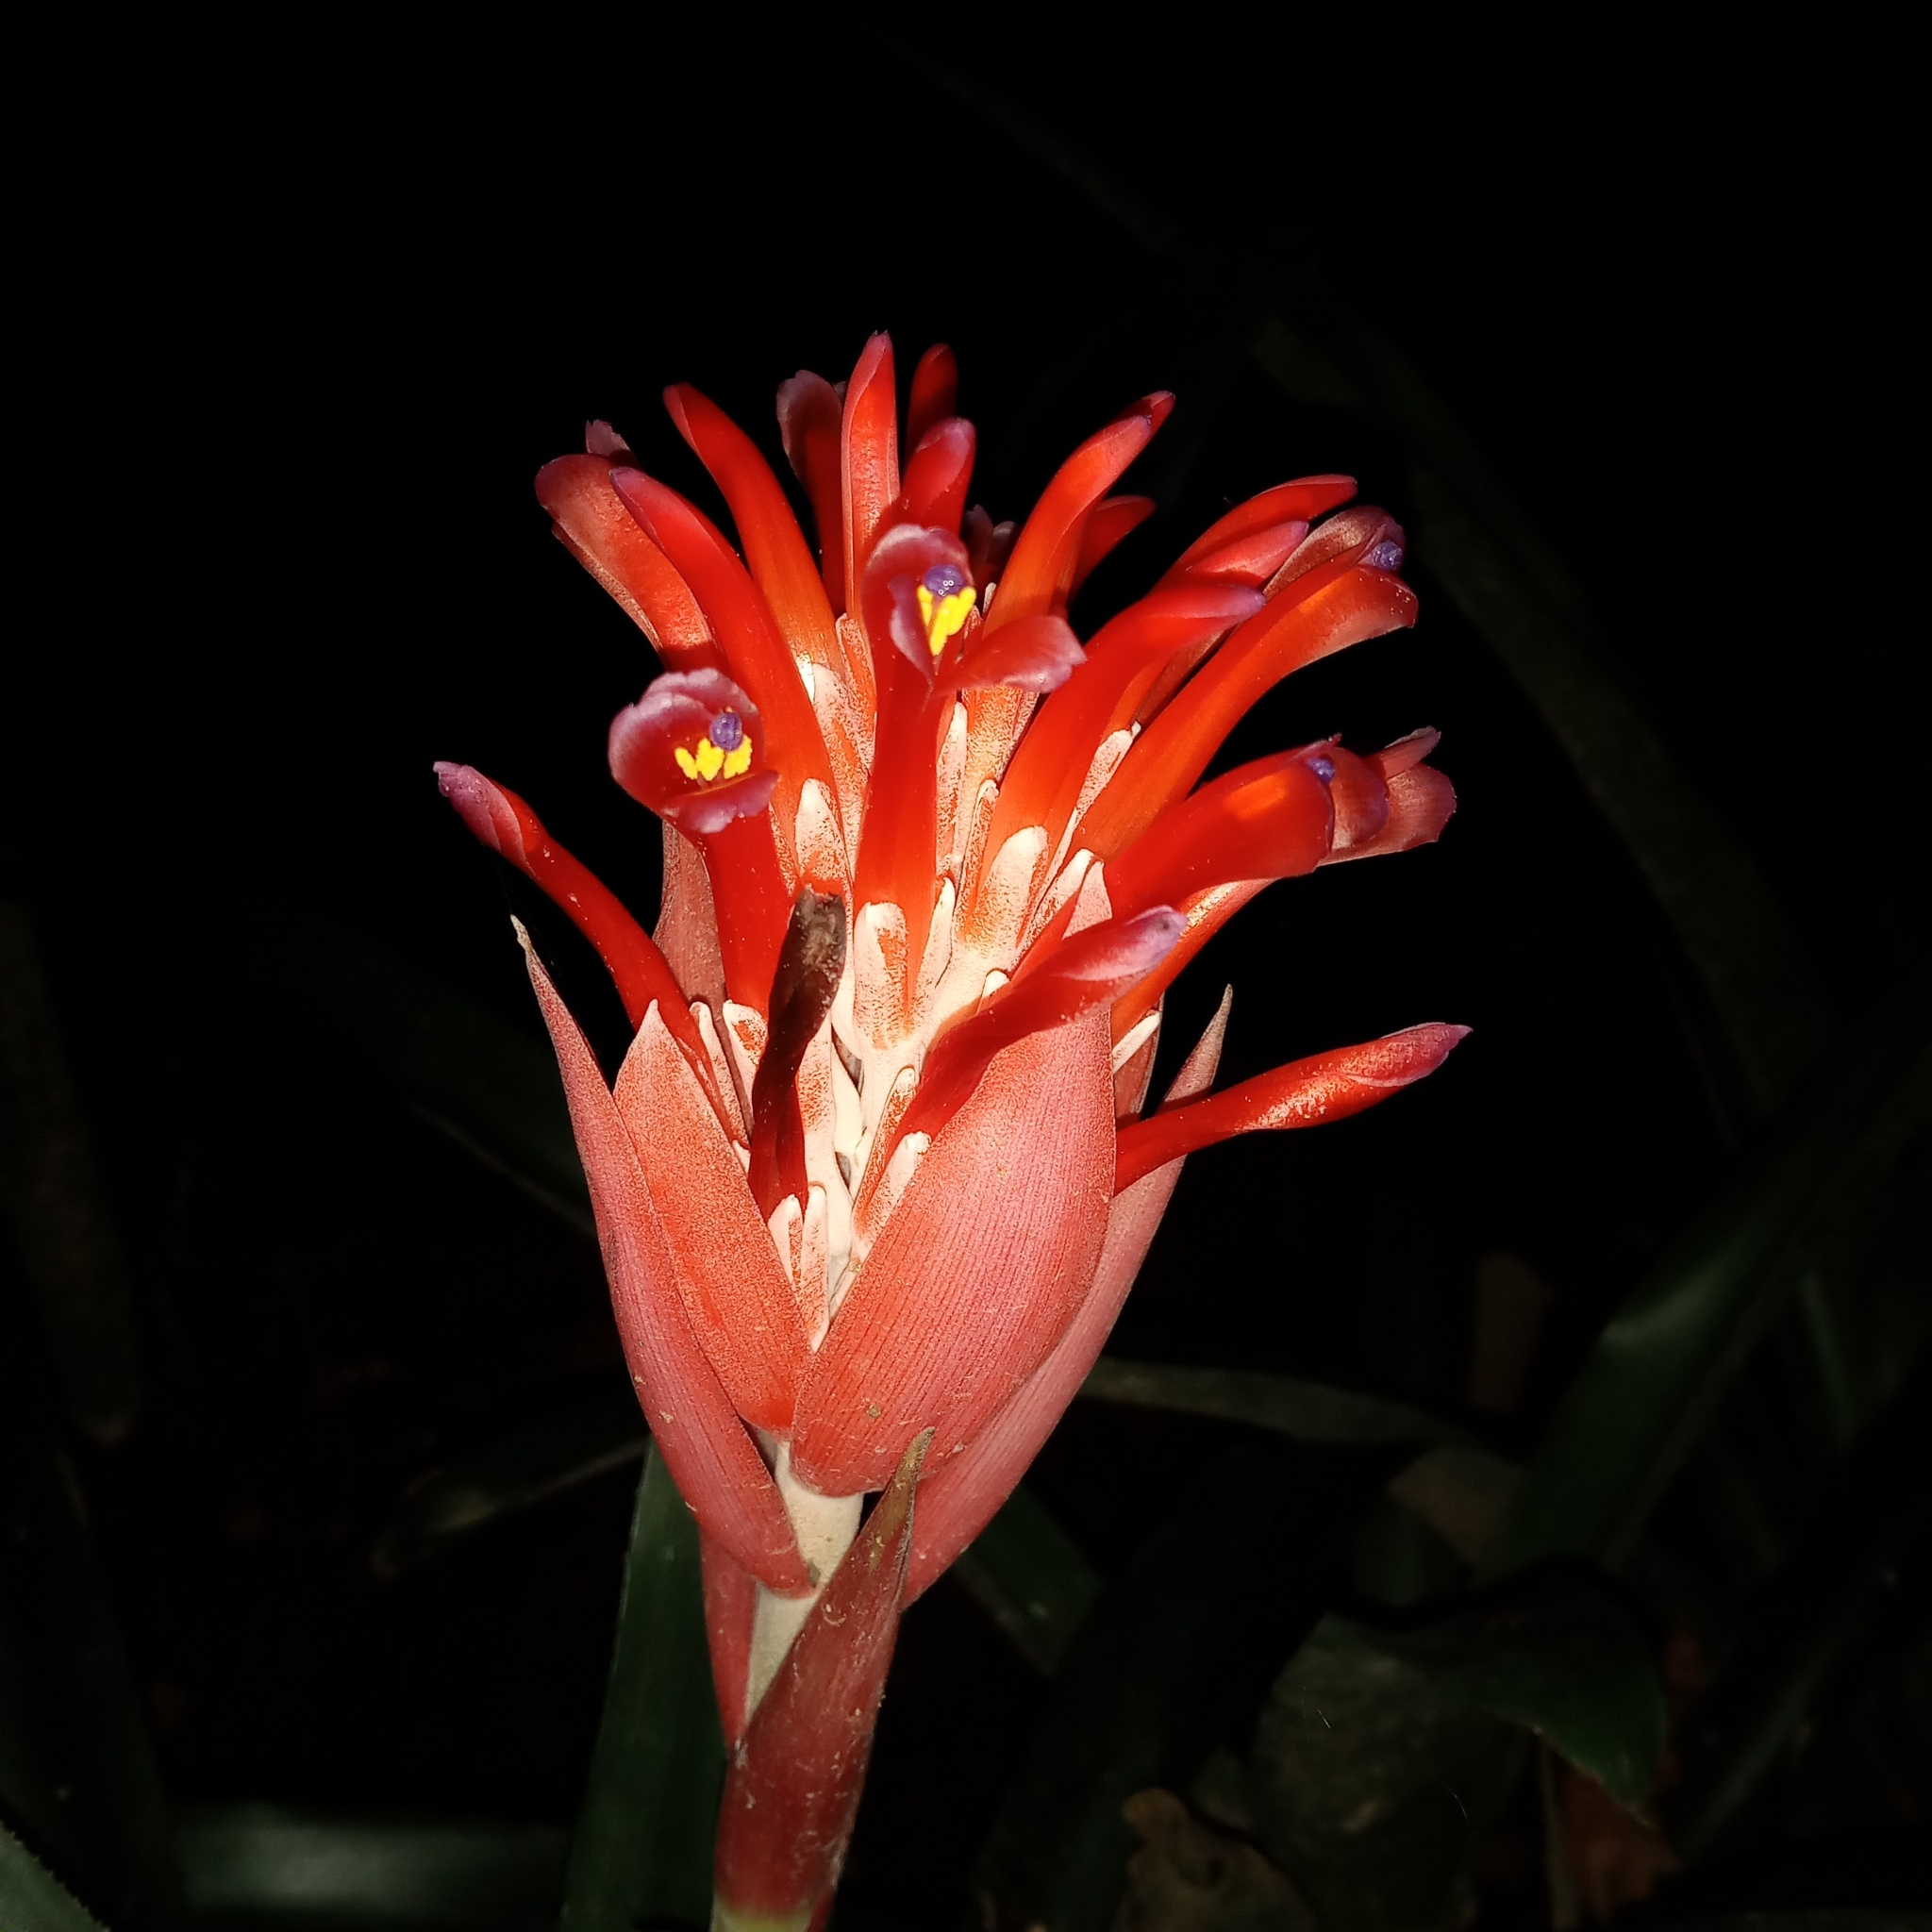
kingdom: Plantae
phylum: Tracheophyta
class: Liliopsida
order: Poales
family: Bromeliaceae
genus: Billbergia
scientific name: Billbergia pyramidalis
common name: Foolproofplant
